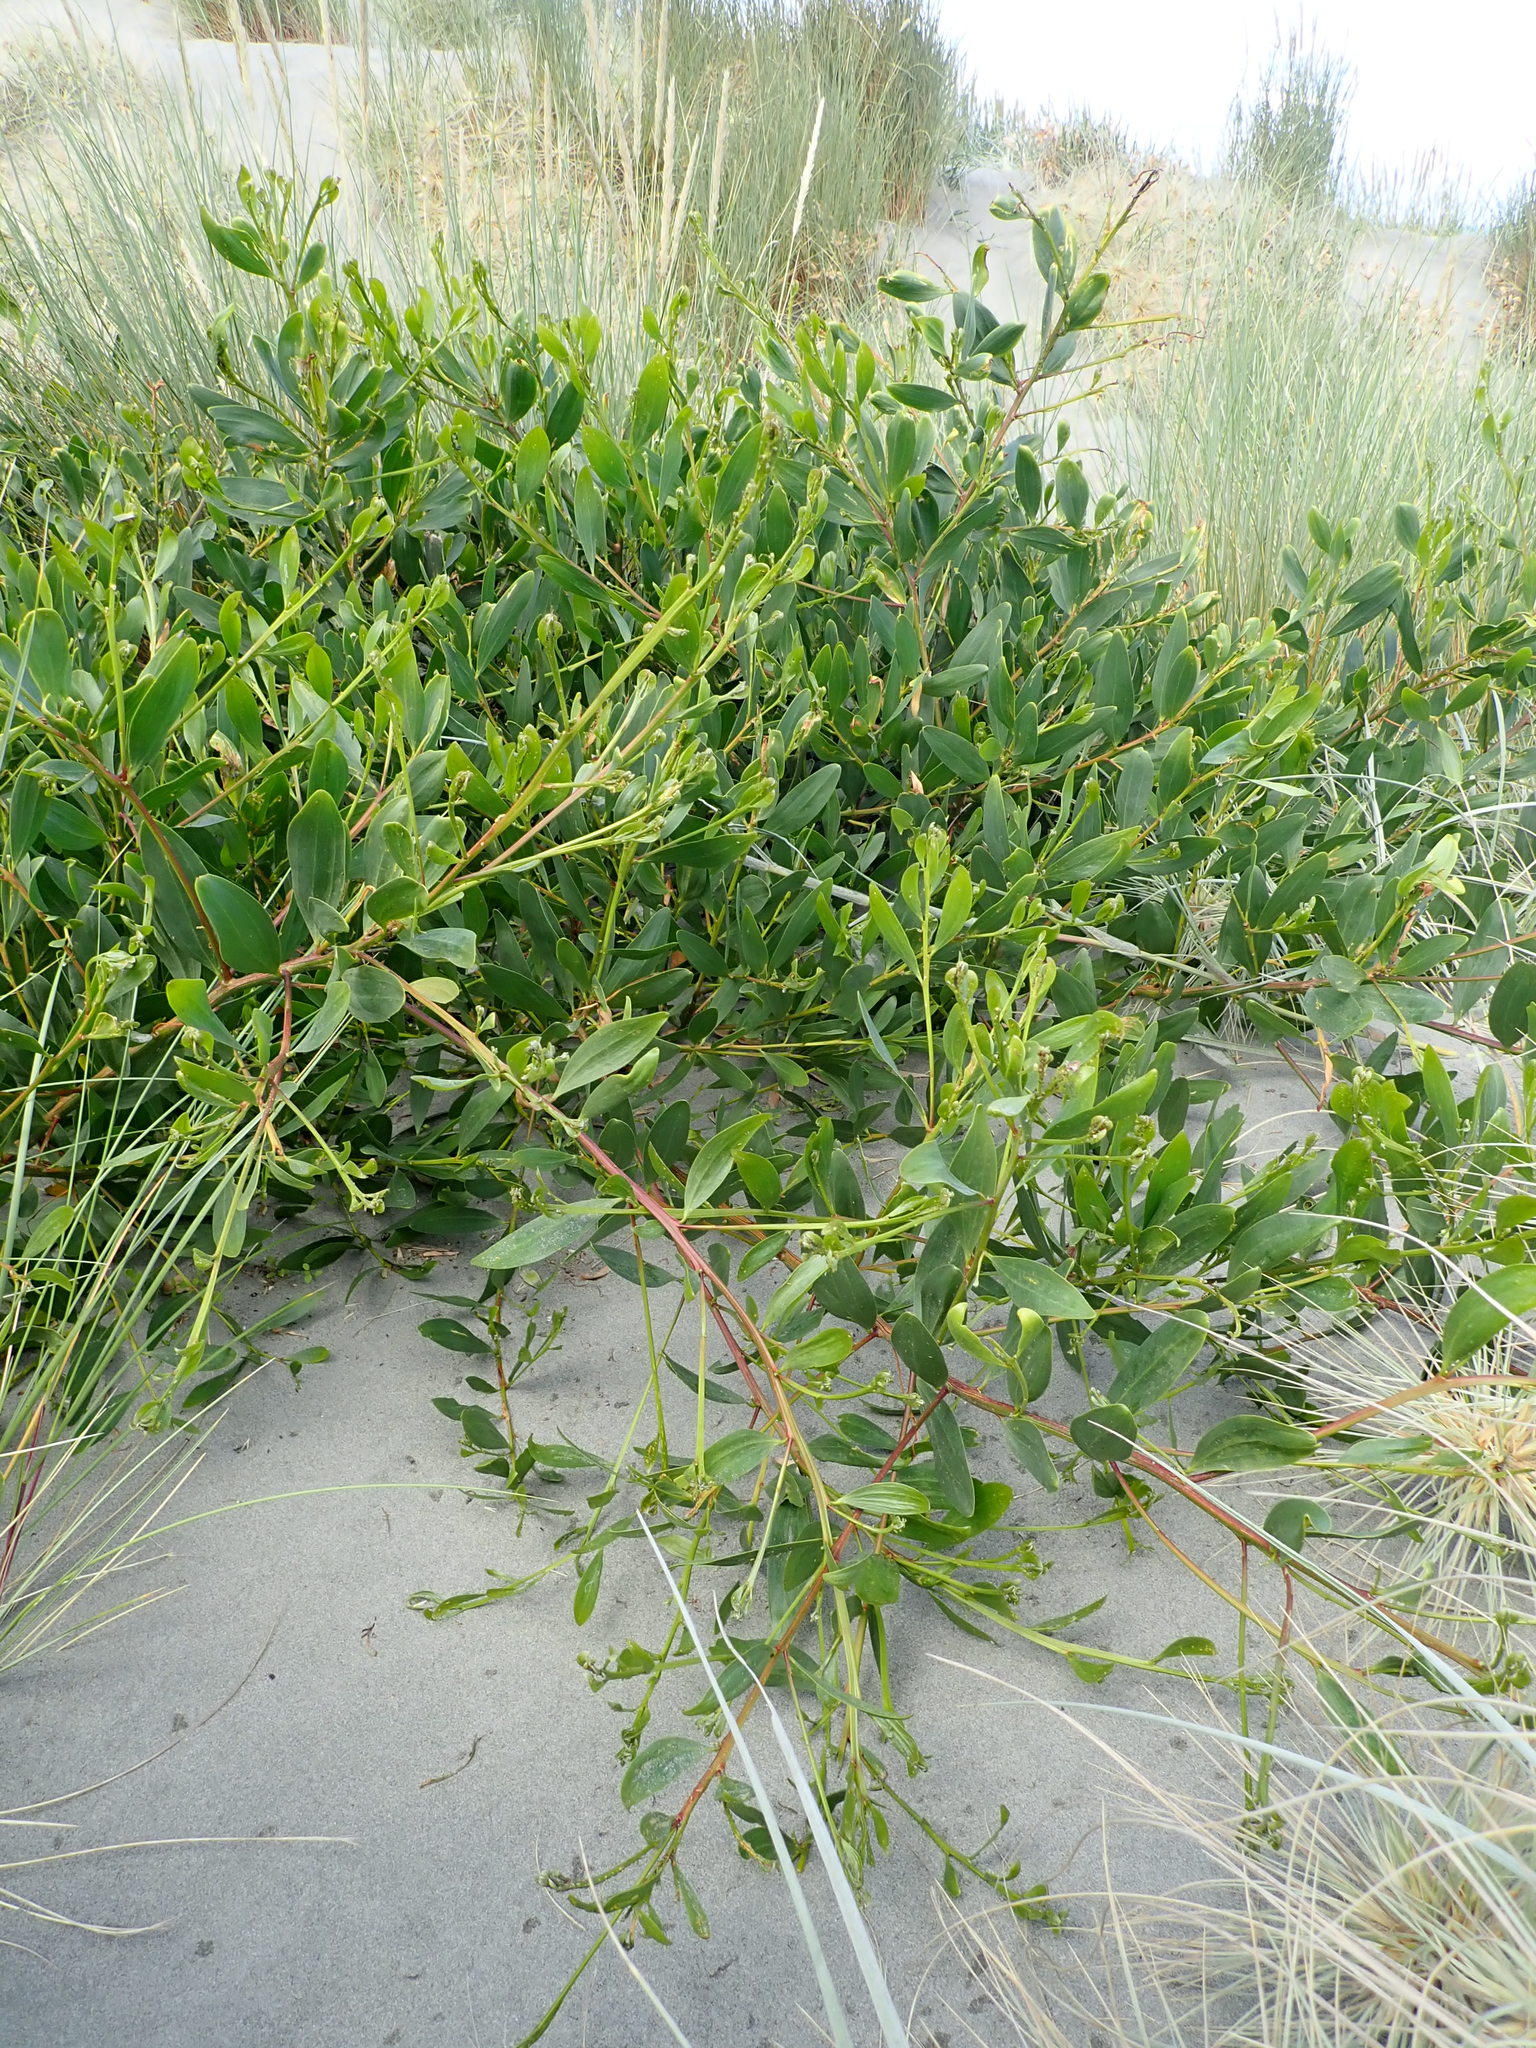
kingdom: Plantae
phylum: Tracheophyta
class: Magnoliopsida
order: Fabales
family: Fabaceae
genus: Acacia
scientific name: Acacia longifolia
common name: Sydney golden wattle
